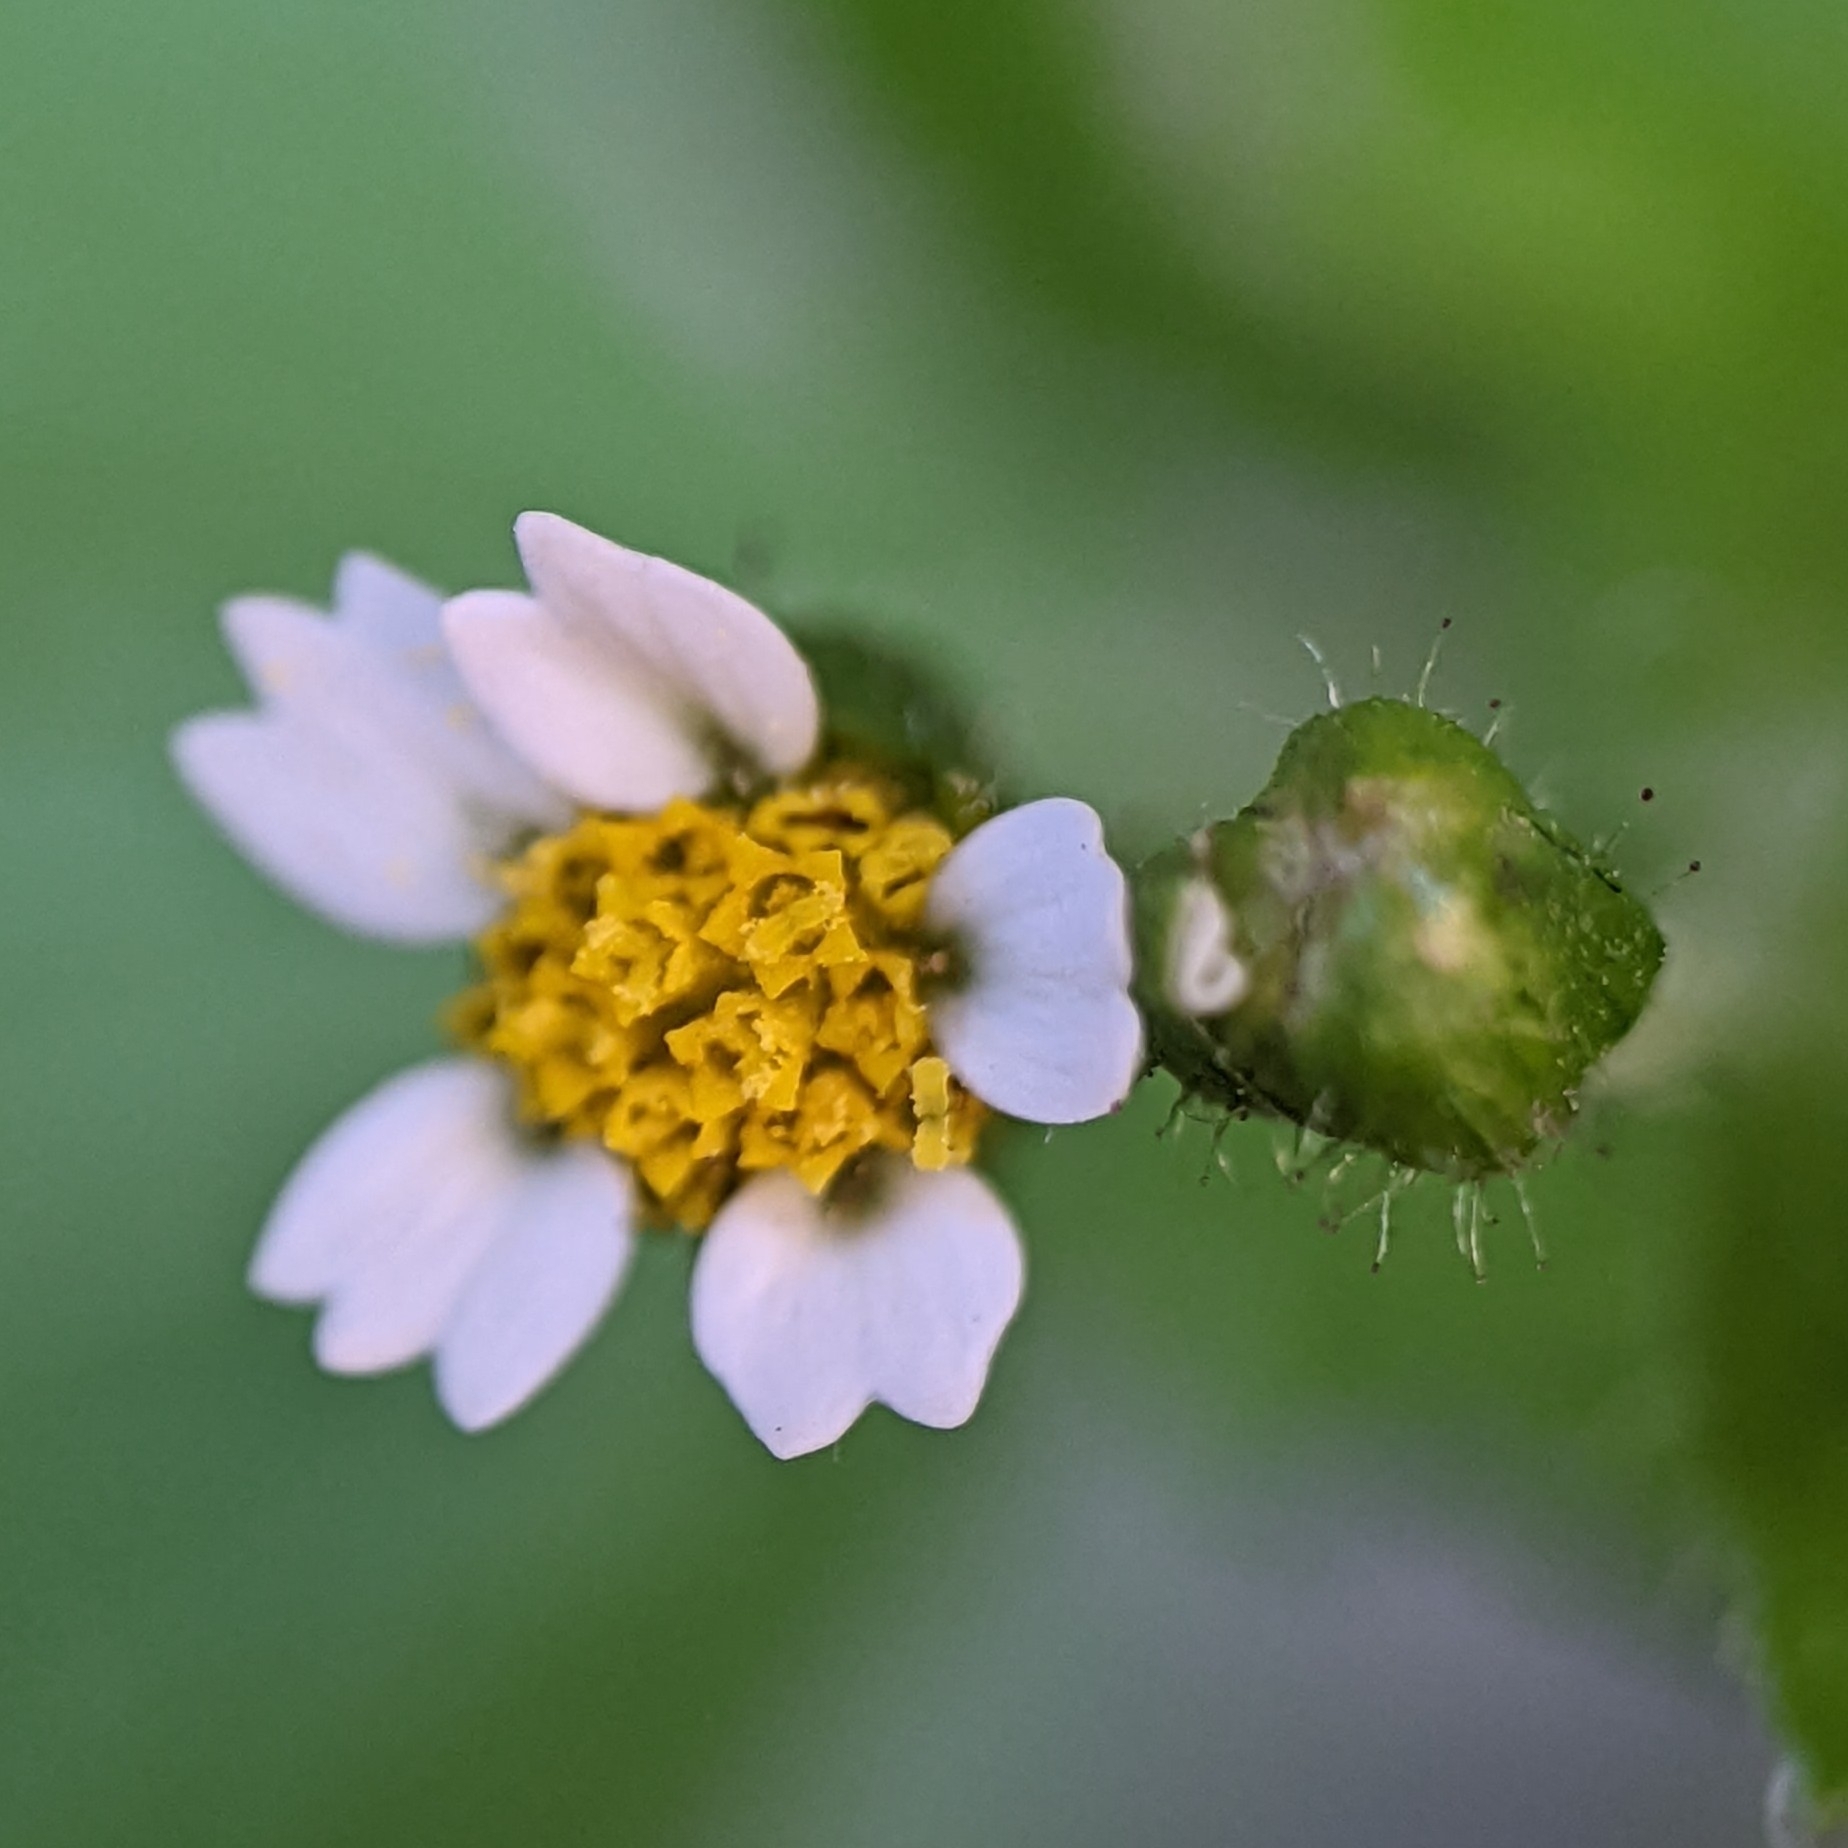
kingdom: Plantae
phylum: Tracheophyta
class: Magnoliopsida
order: Asterales
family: Asteraceae
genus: Galinsoga
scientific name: Galinsoga quadriradiata
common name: Shaggy soldier
